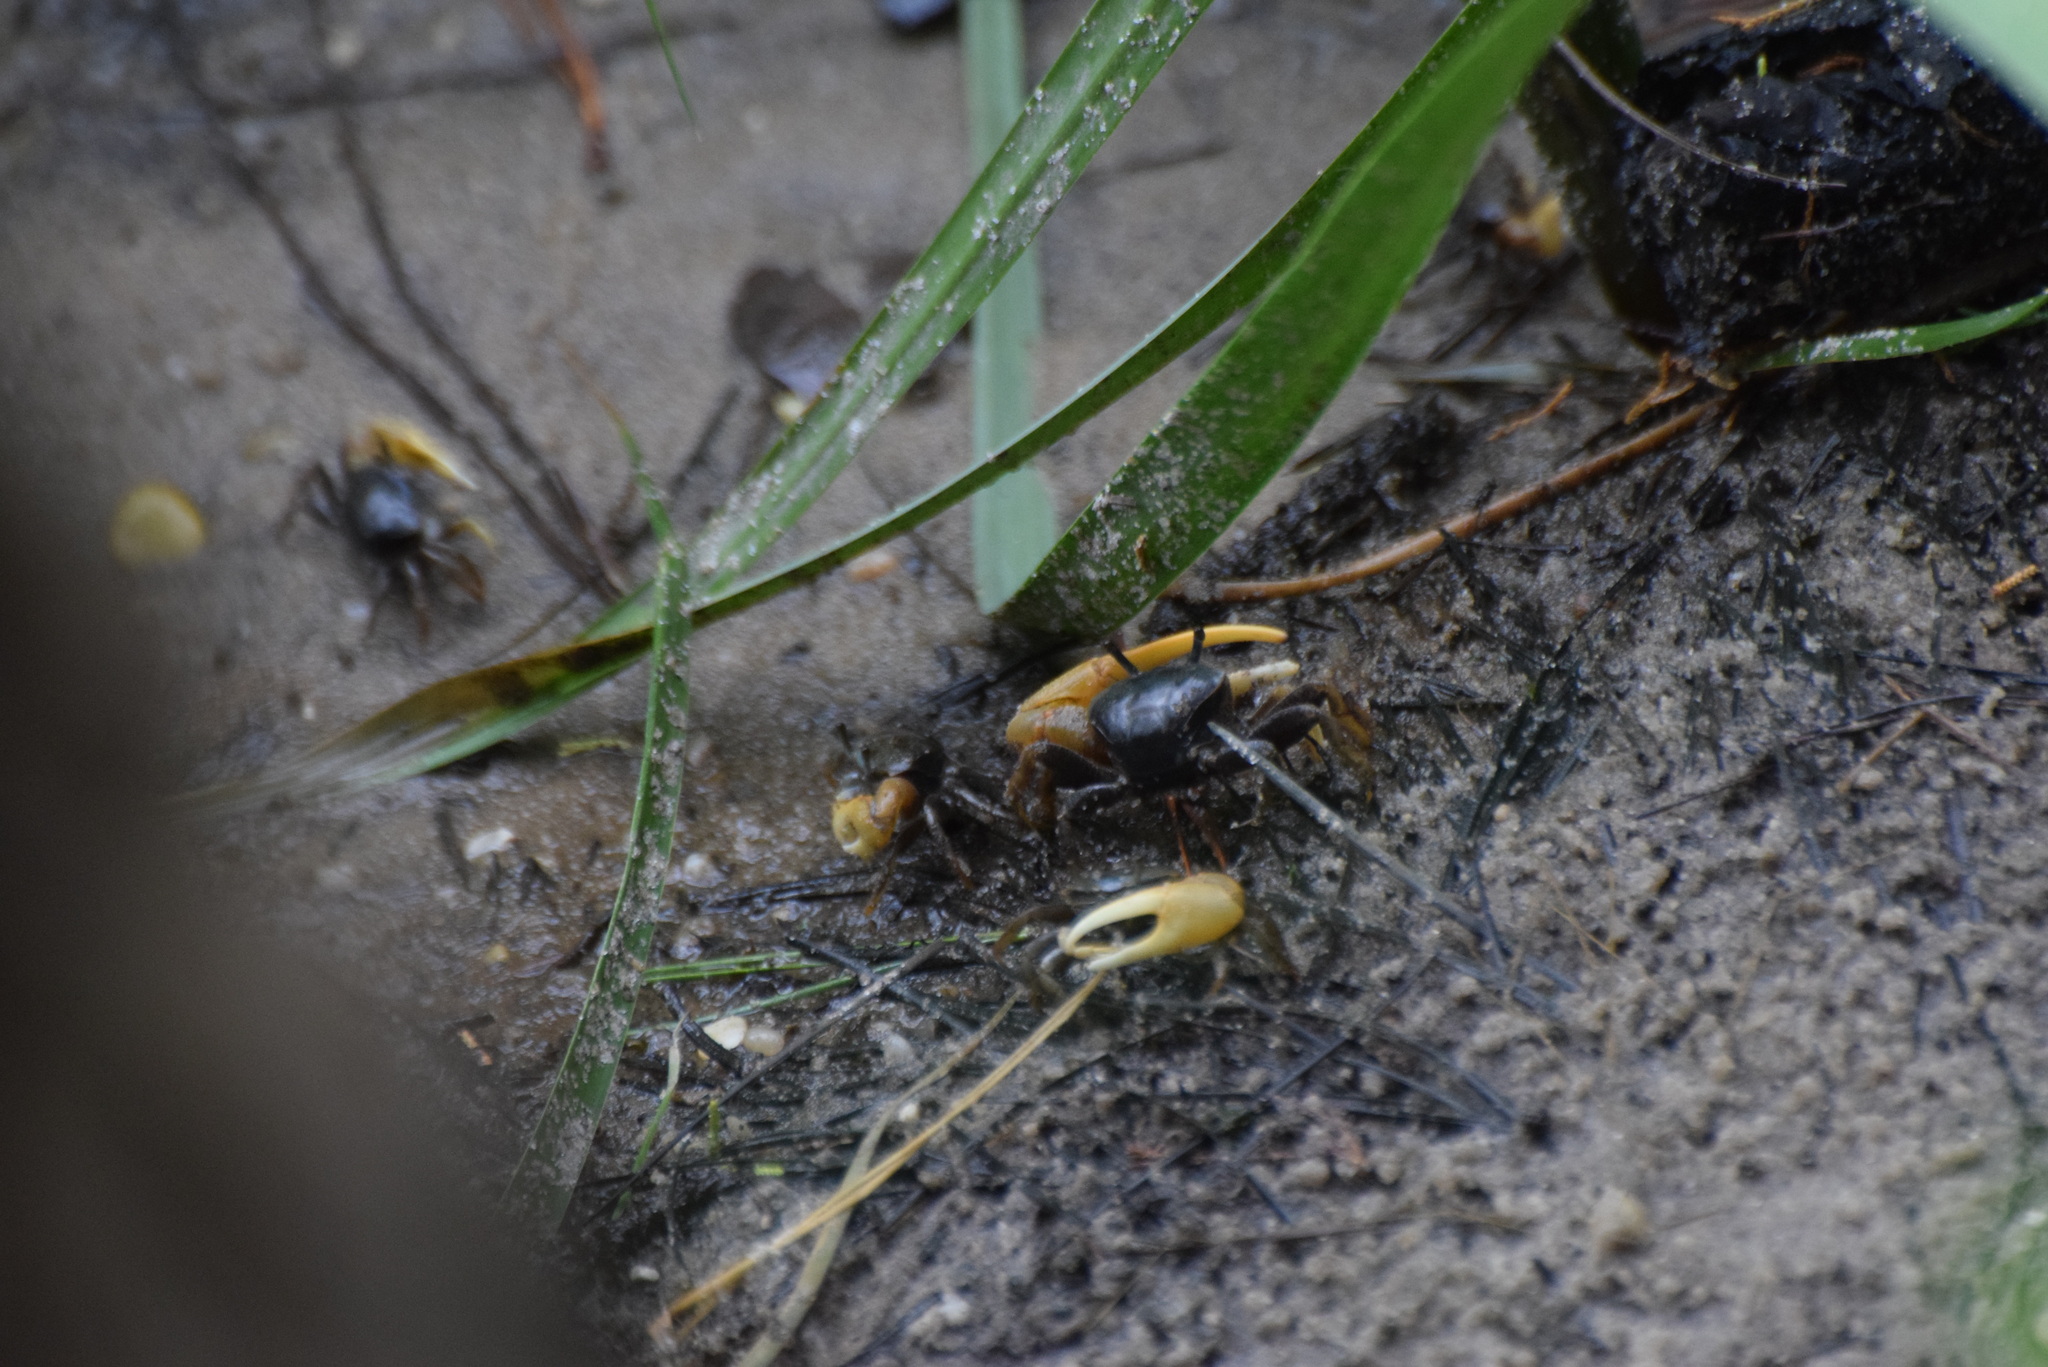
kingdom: Animalia
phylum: Arthropoda
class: Malacostraca
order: Decapoda
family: Ocypodidae
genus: Minuca
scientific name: Minuca pugnax
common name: Mud fiddler crab
